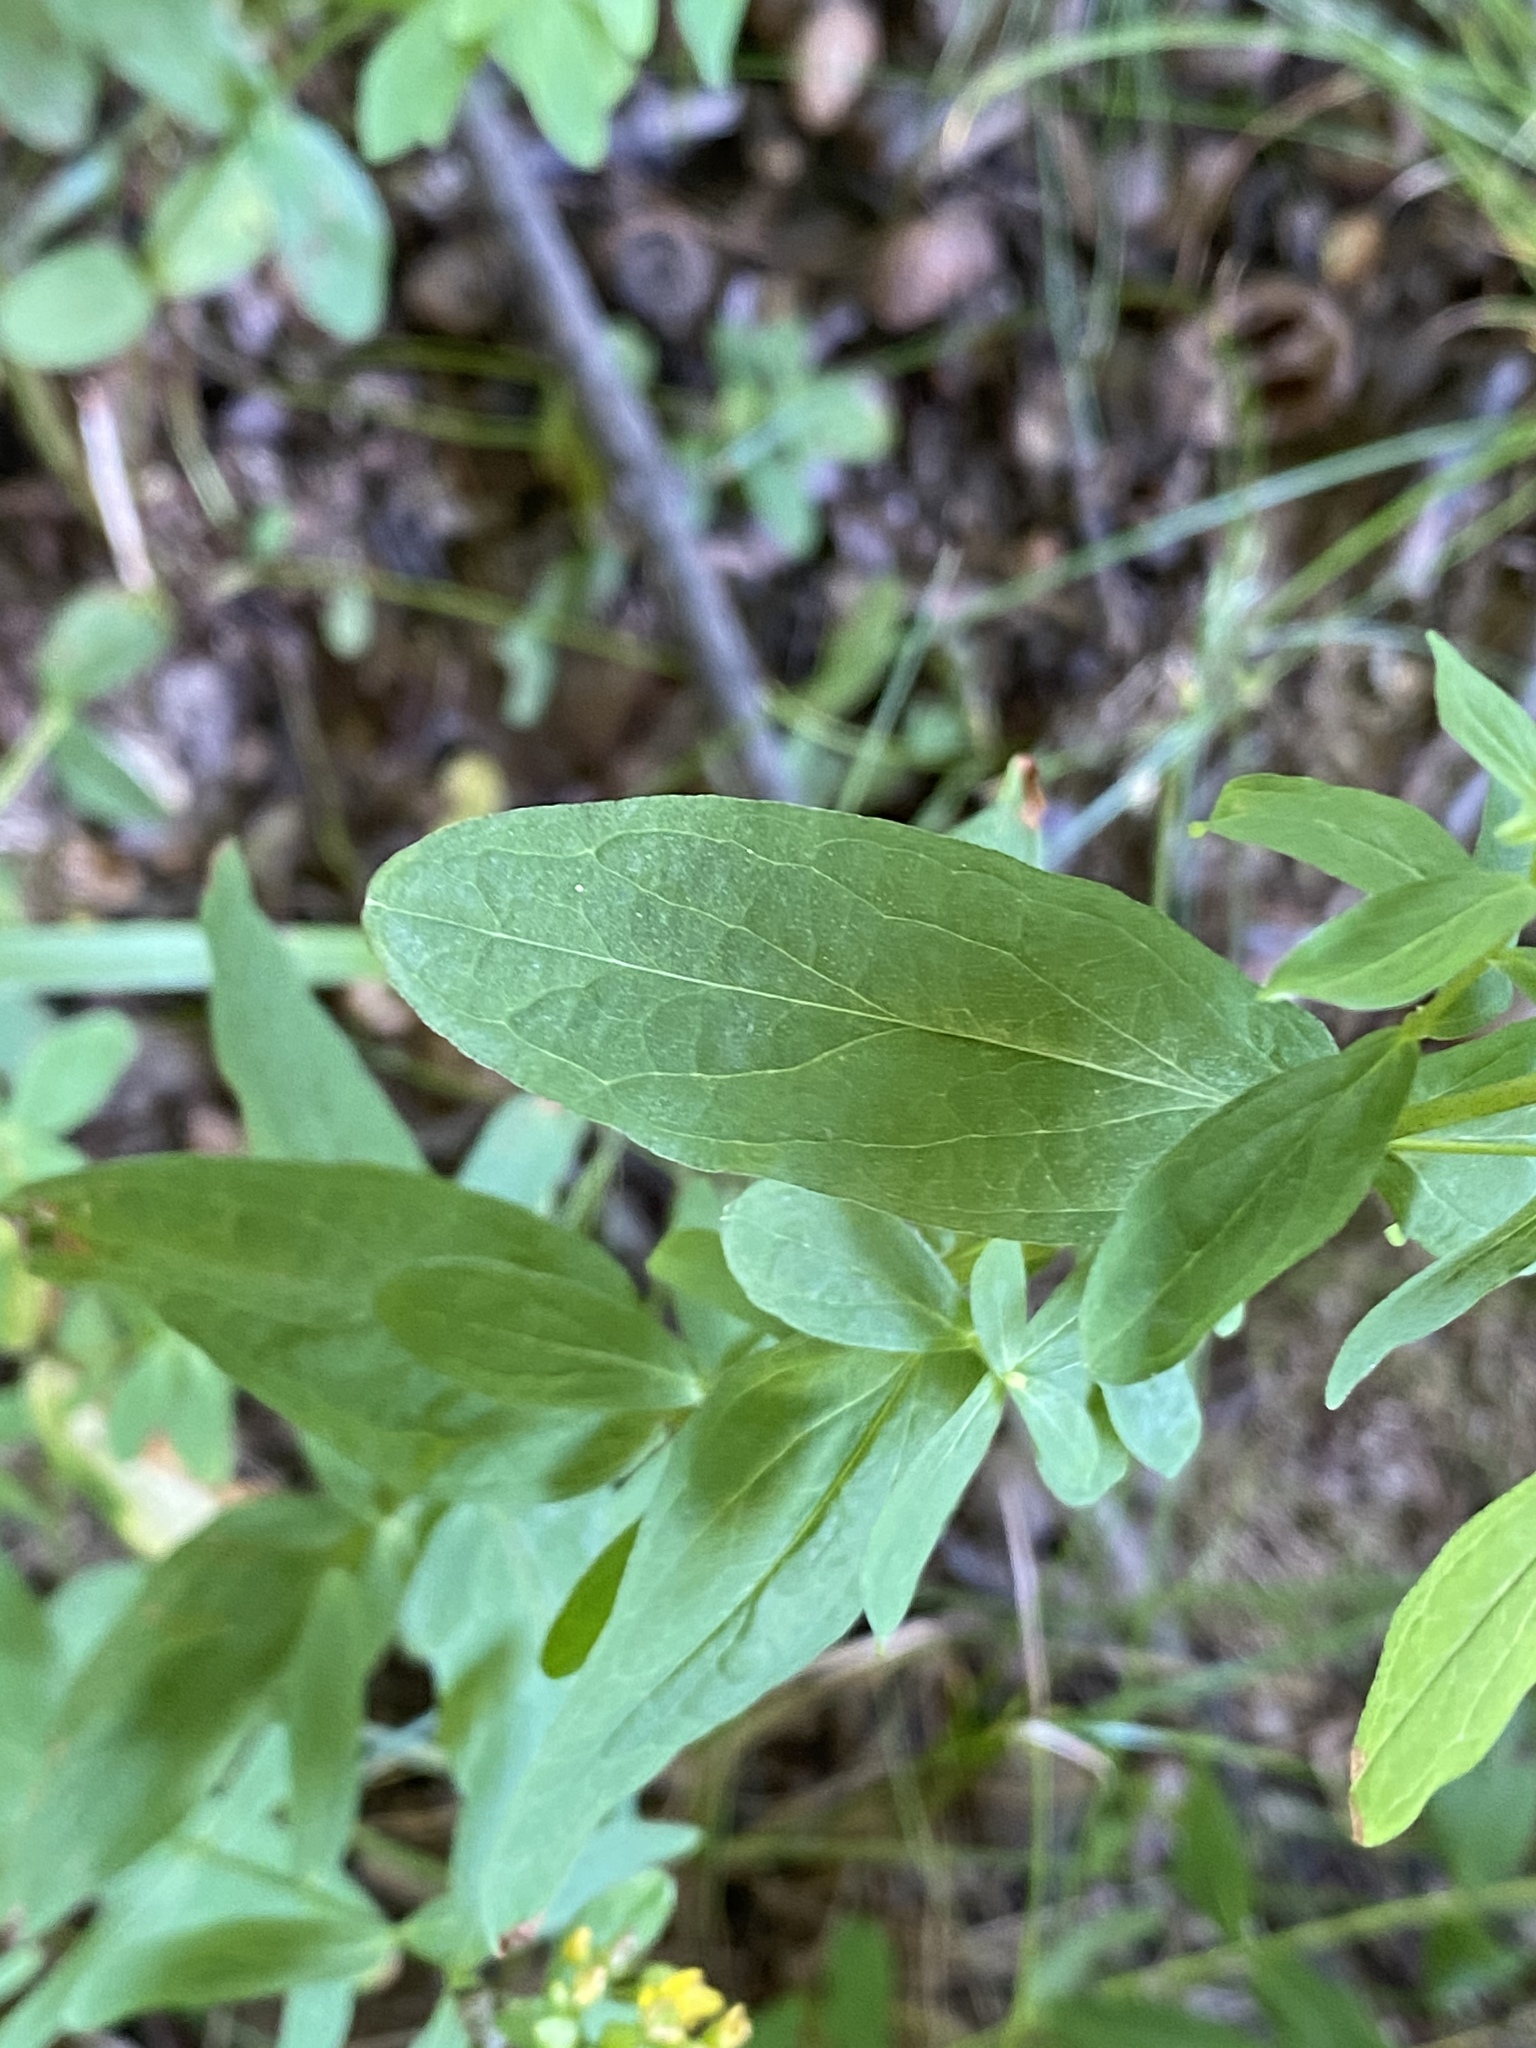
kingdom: Plantae
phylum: Tracheophyta
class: Magnoliopsida
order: Malpighiales
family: Hypericaceae
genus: Hypericum
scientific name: Hypericum punctatum
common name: Spotted st. john's-wort
